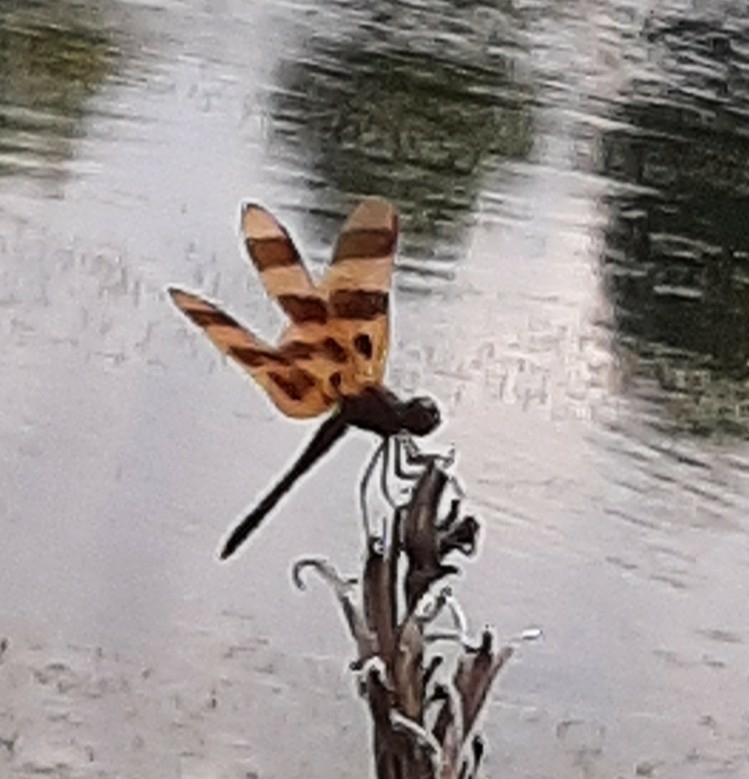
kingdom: Animalia
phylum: Arthropoda
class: Insecta
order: Odonata
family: Libellulidae
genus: Celithemis
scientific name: Celithemis eponina
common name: Halloween pennant
